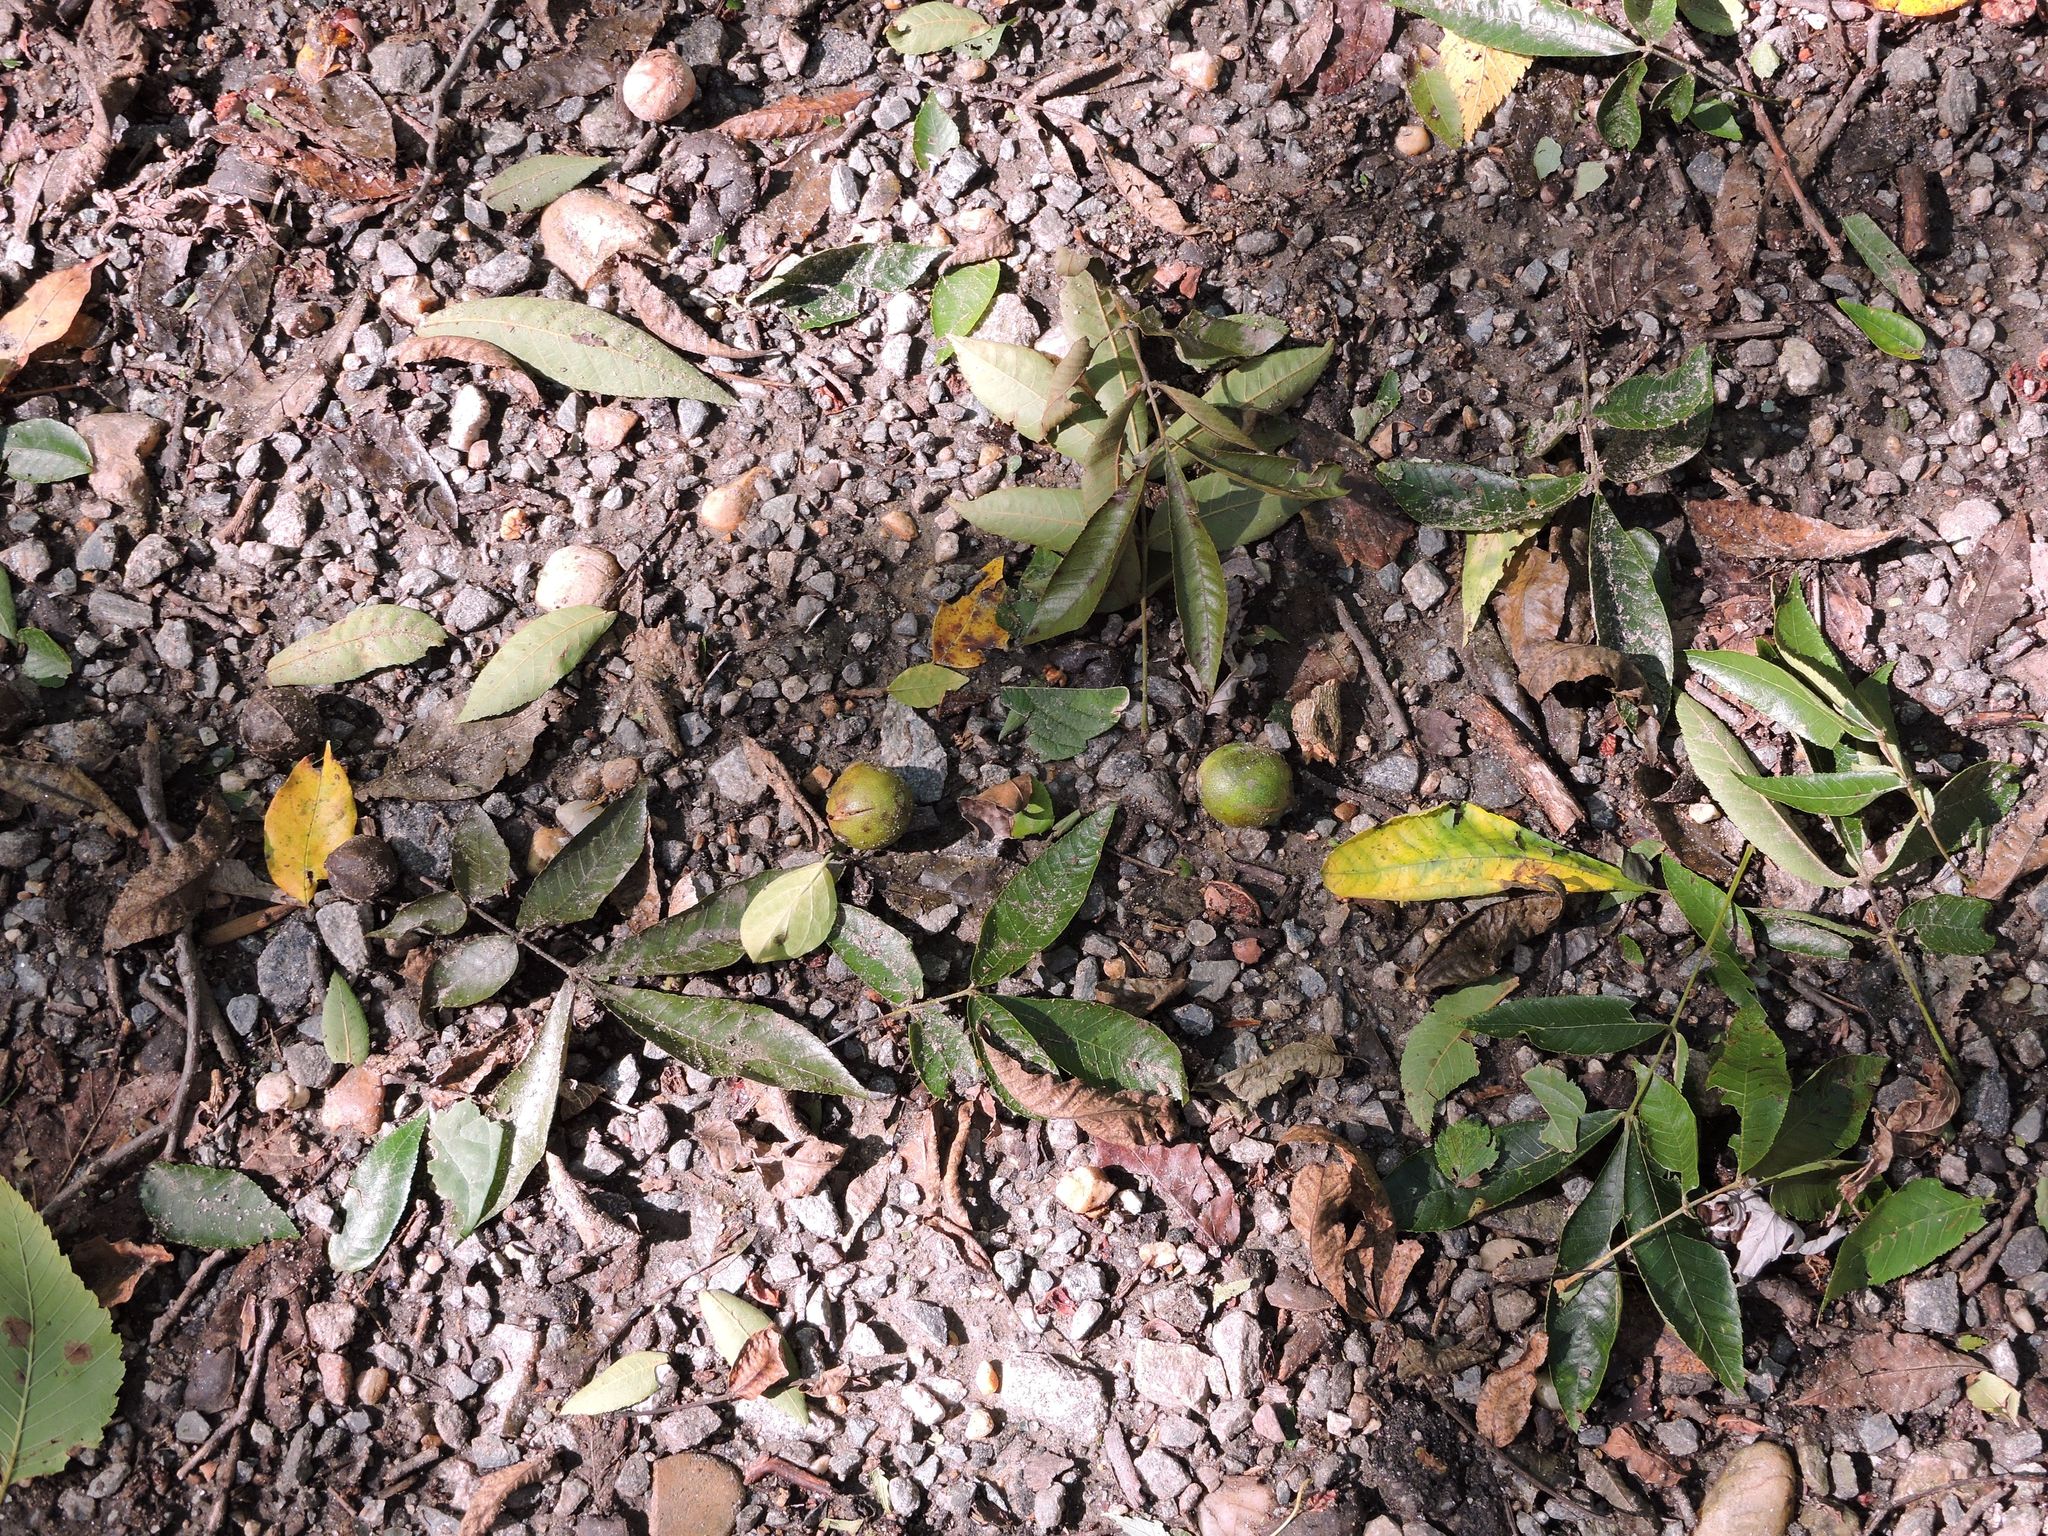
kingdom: Plantae
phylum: Tracheophyta
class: Magnoliopsida
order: Fagales
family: Juglandaceae
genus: Carya
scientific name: Carya cordiformis
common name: Bitternut hickory
